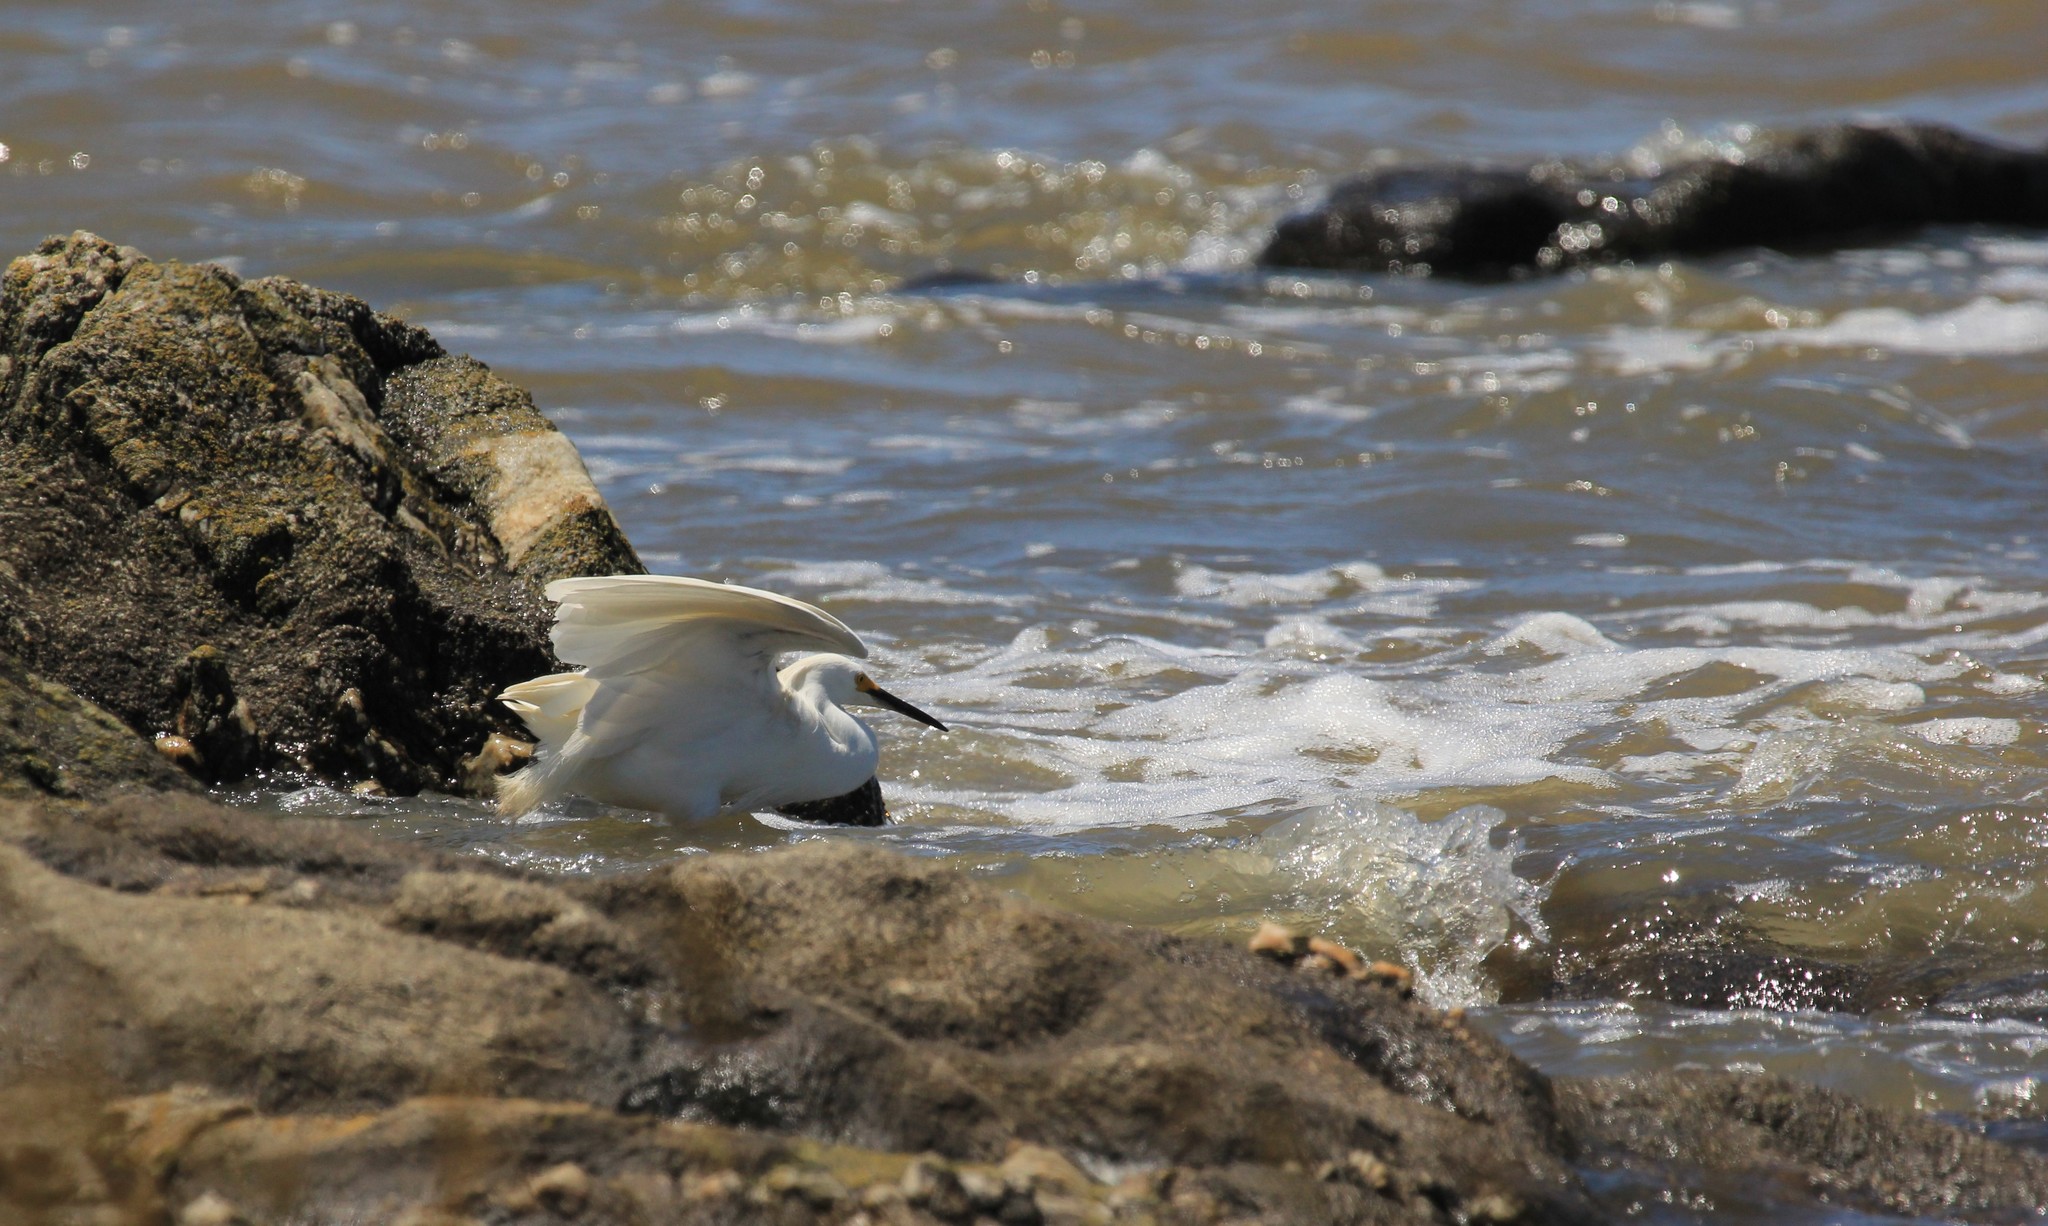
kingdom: Animalia
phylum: Chordata
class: Aves
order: Pelecaniformes
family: Ardeidae
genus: Egretta
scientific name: Egretta thula
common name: Snowy egret
